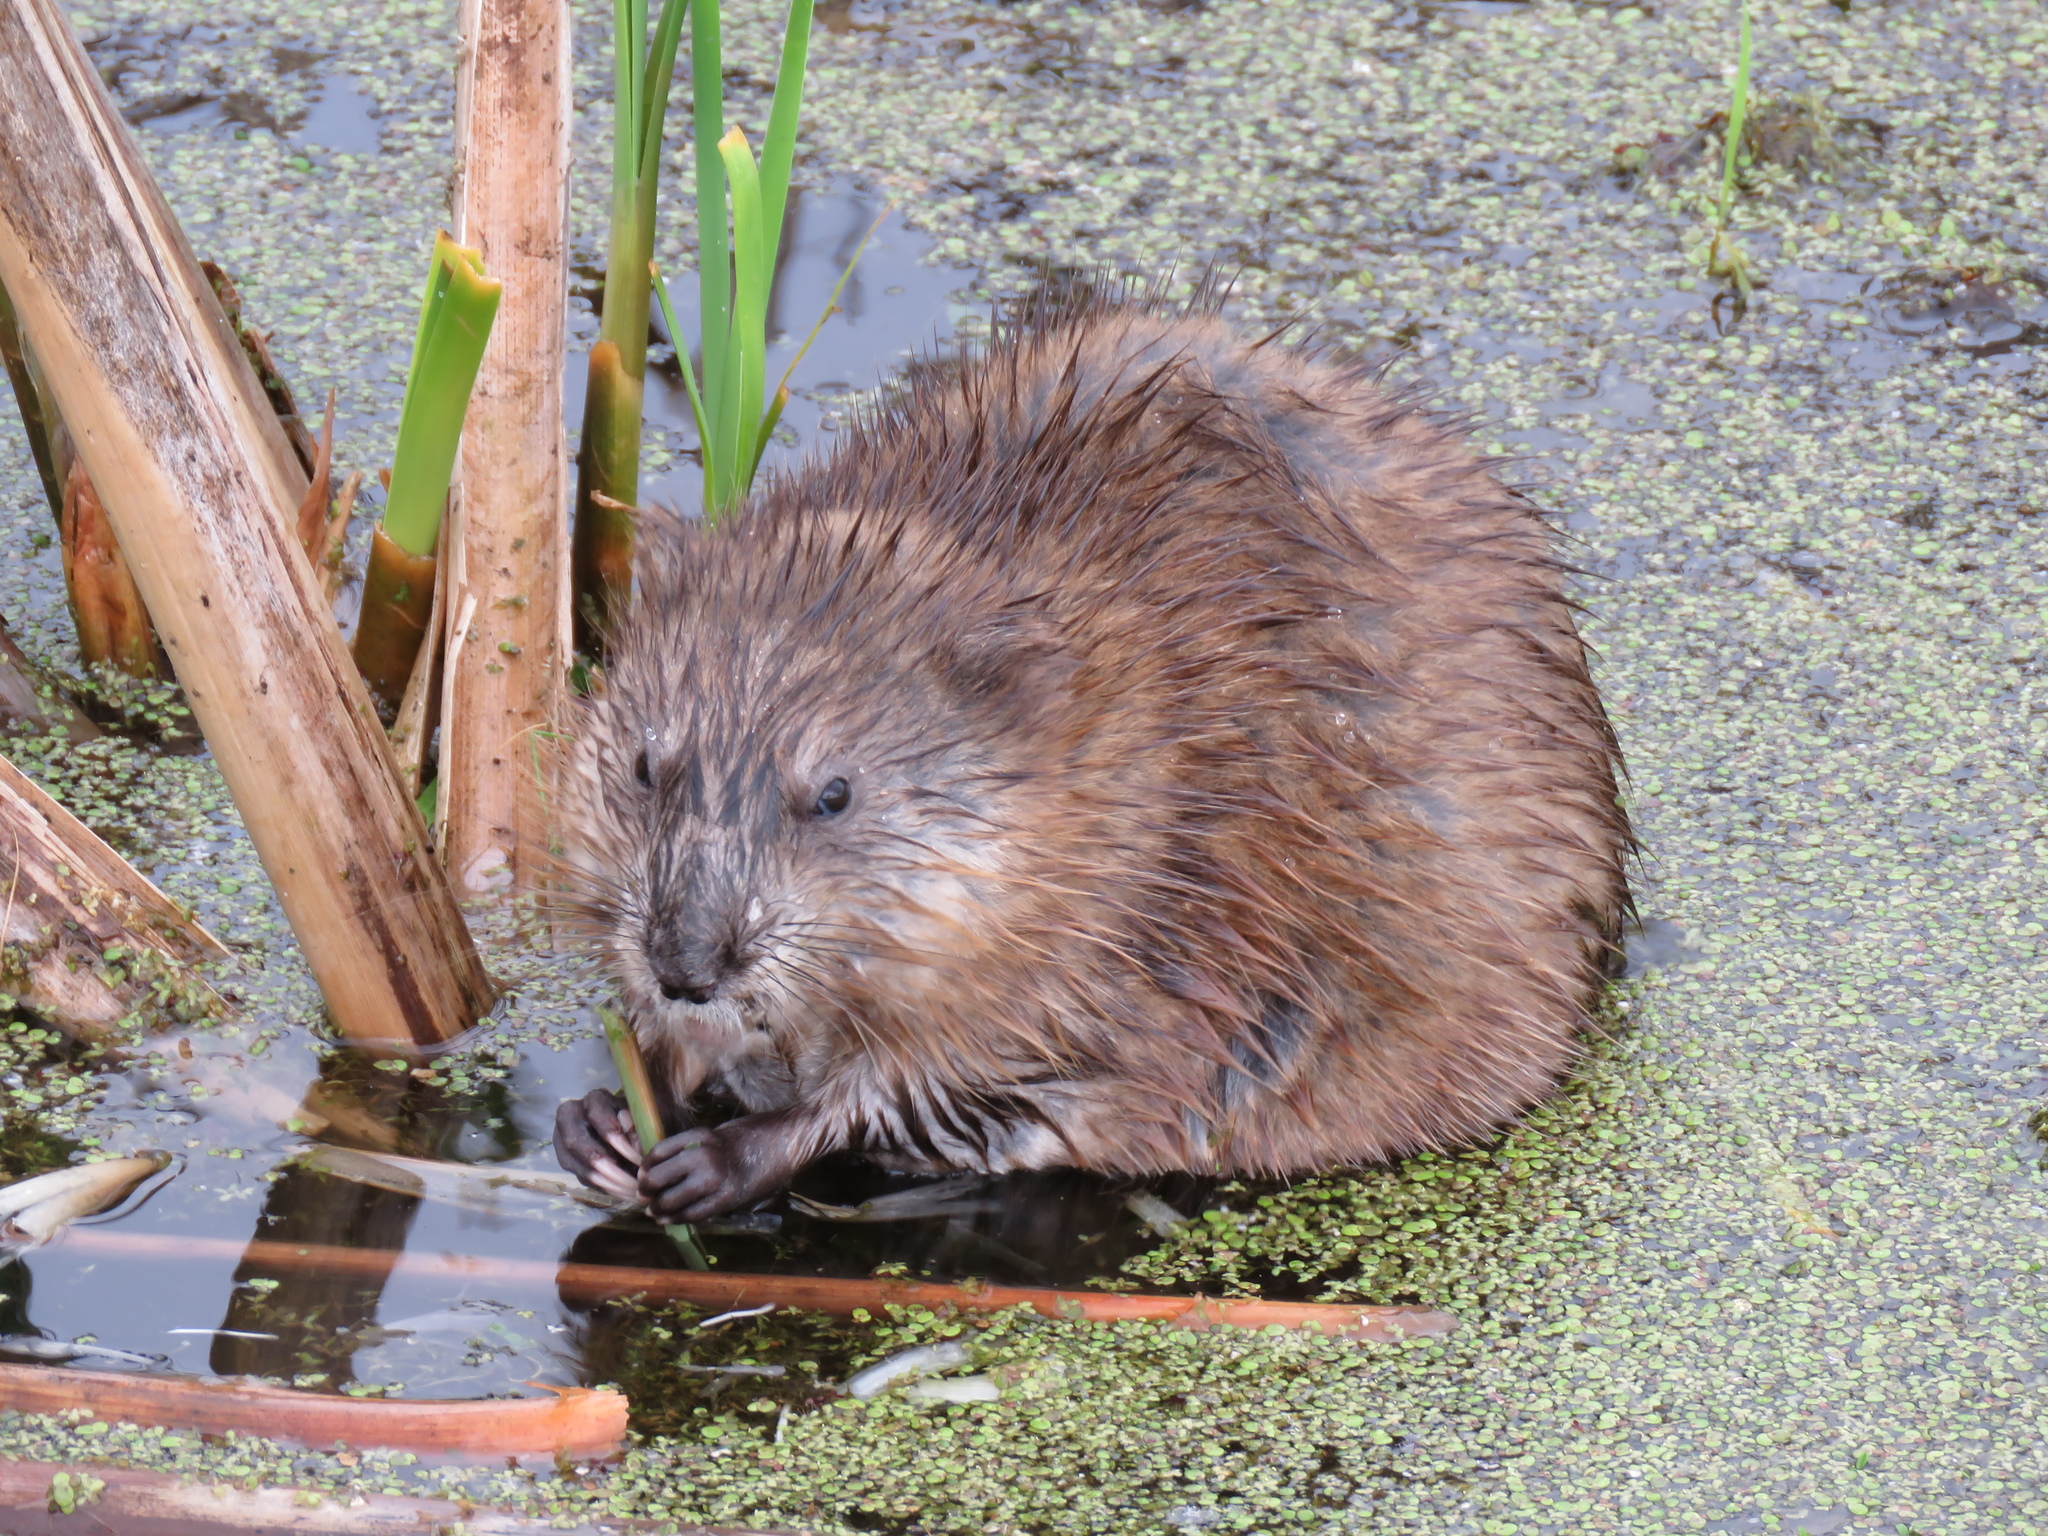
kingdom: Animalia
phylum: Chordata
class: Mammalia
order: Rodentia
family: Cricetidae
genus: Ondatra
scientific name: Ondatra zibethicus
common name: Muskrat
